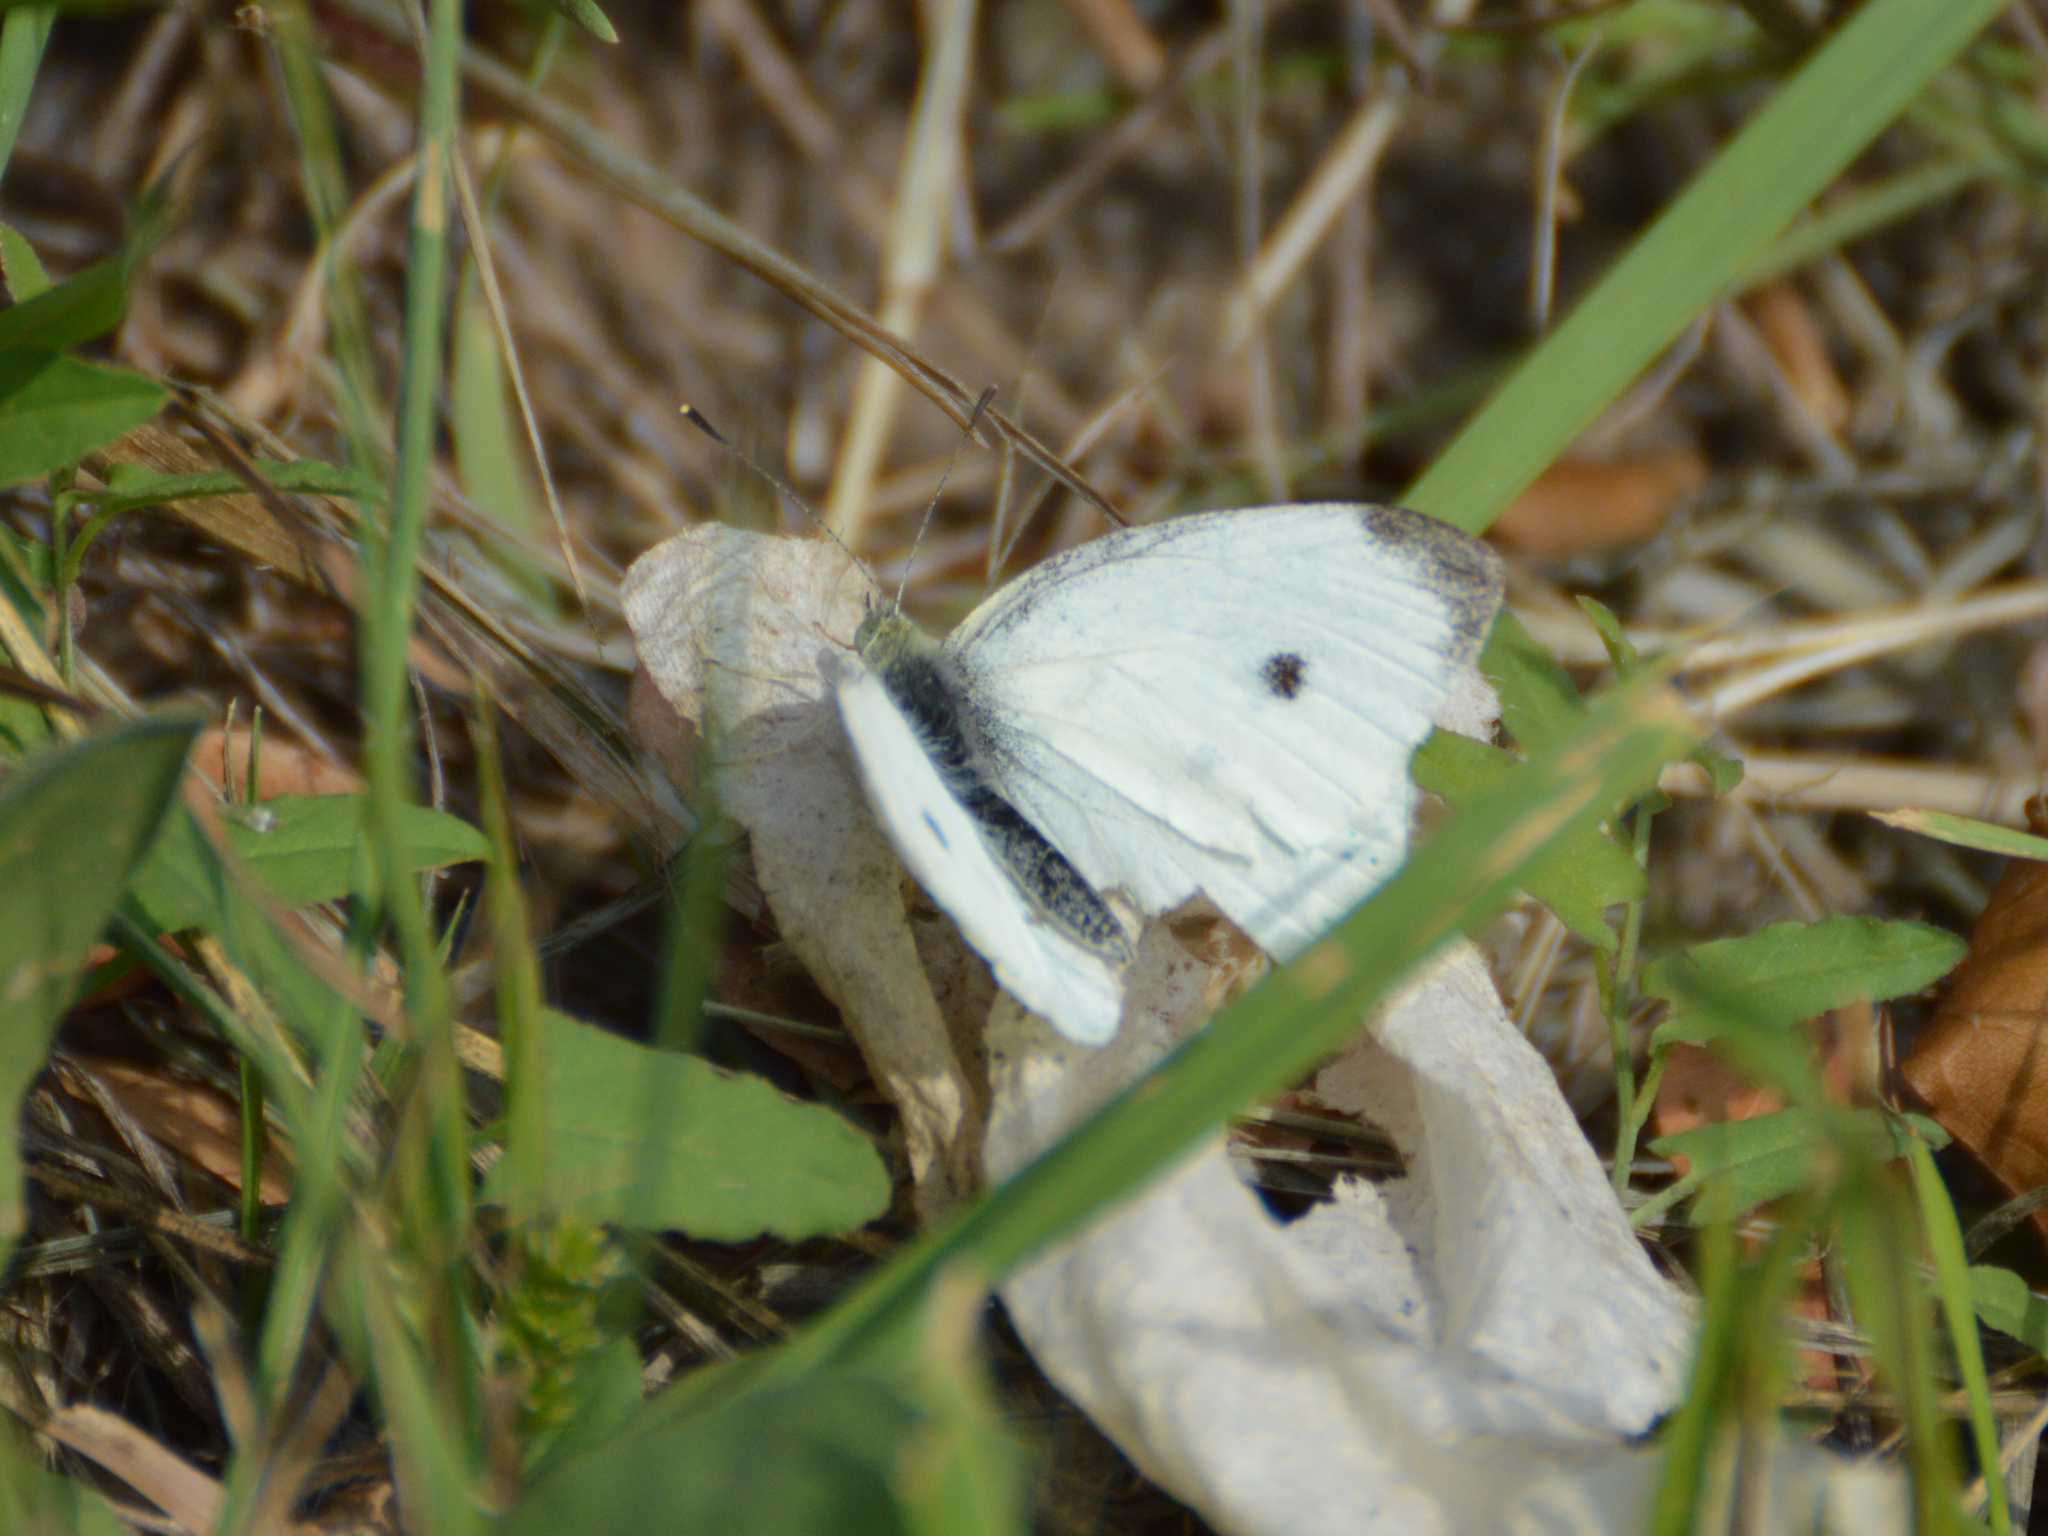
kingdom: Animalia
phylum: Arthropoda
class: Insecta
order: Lepidoptera
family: Pieridae
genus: Pieris
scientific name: Pieris rapae
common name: Small white
